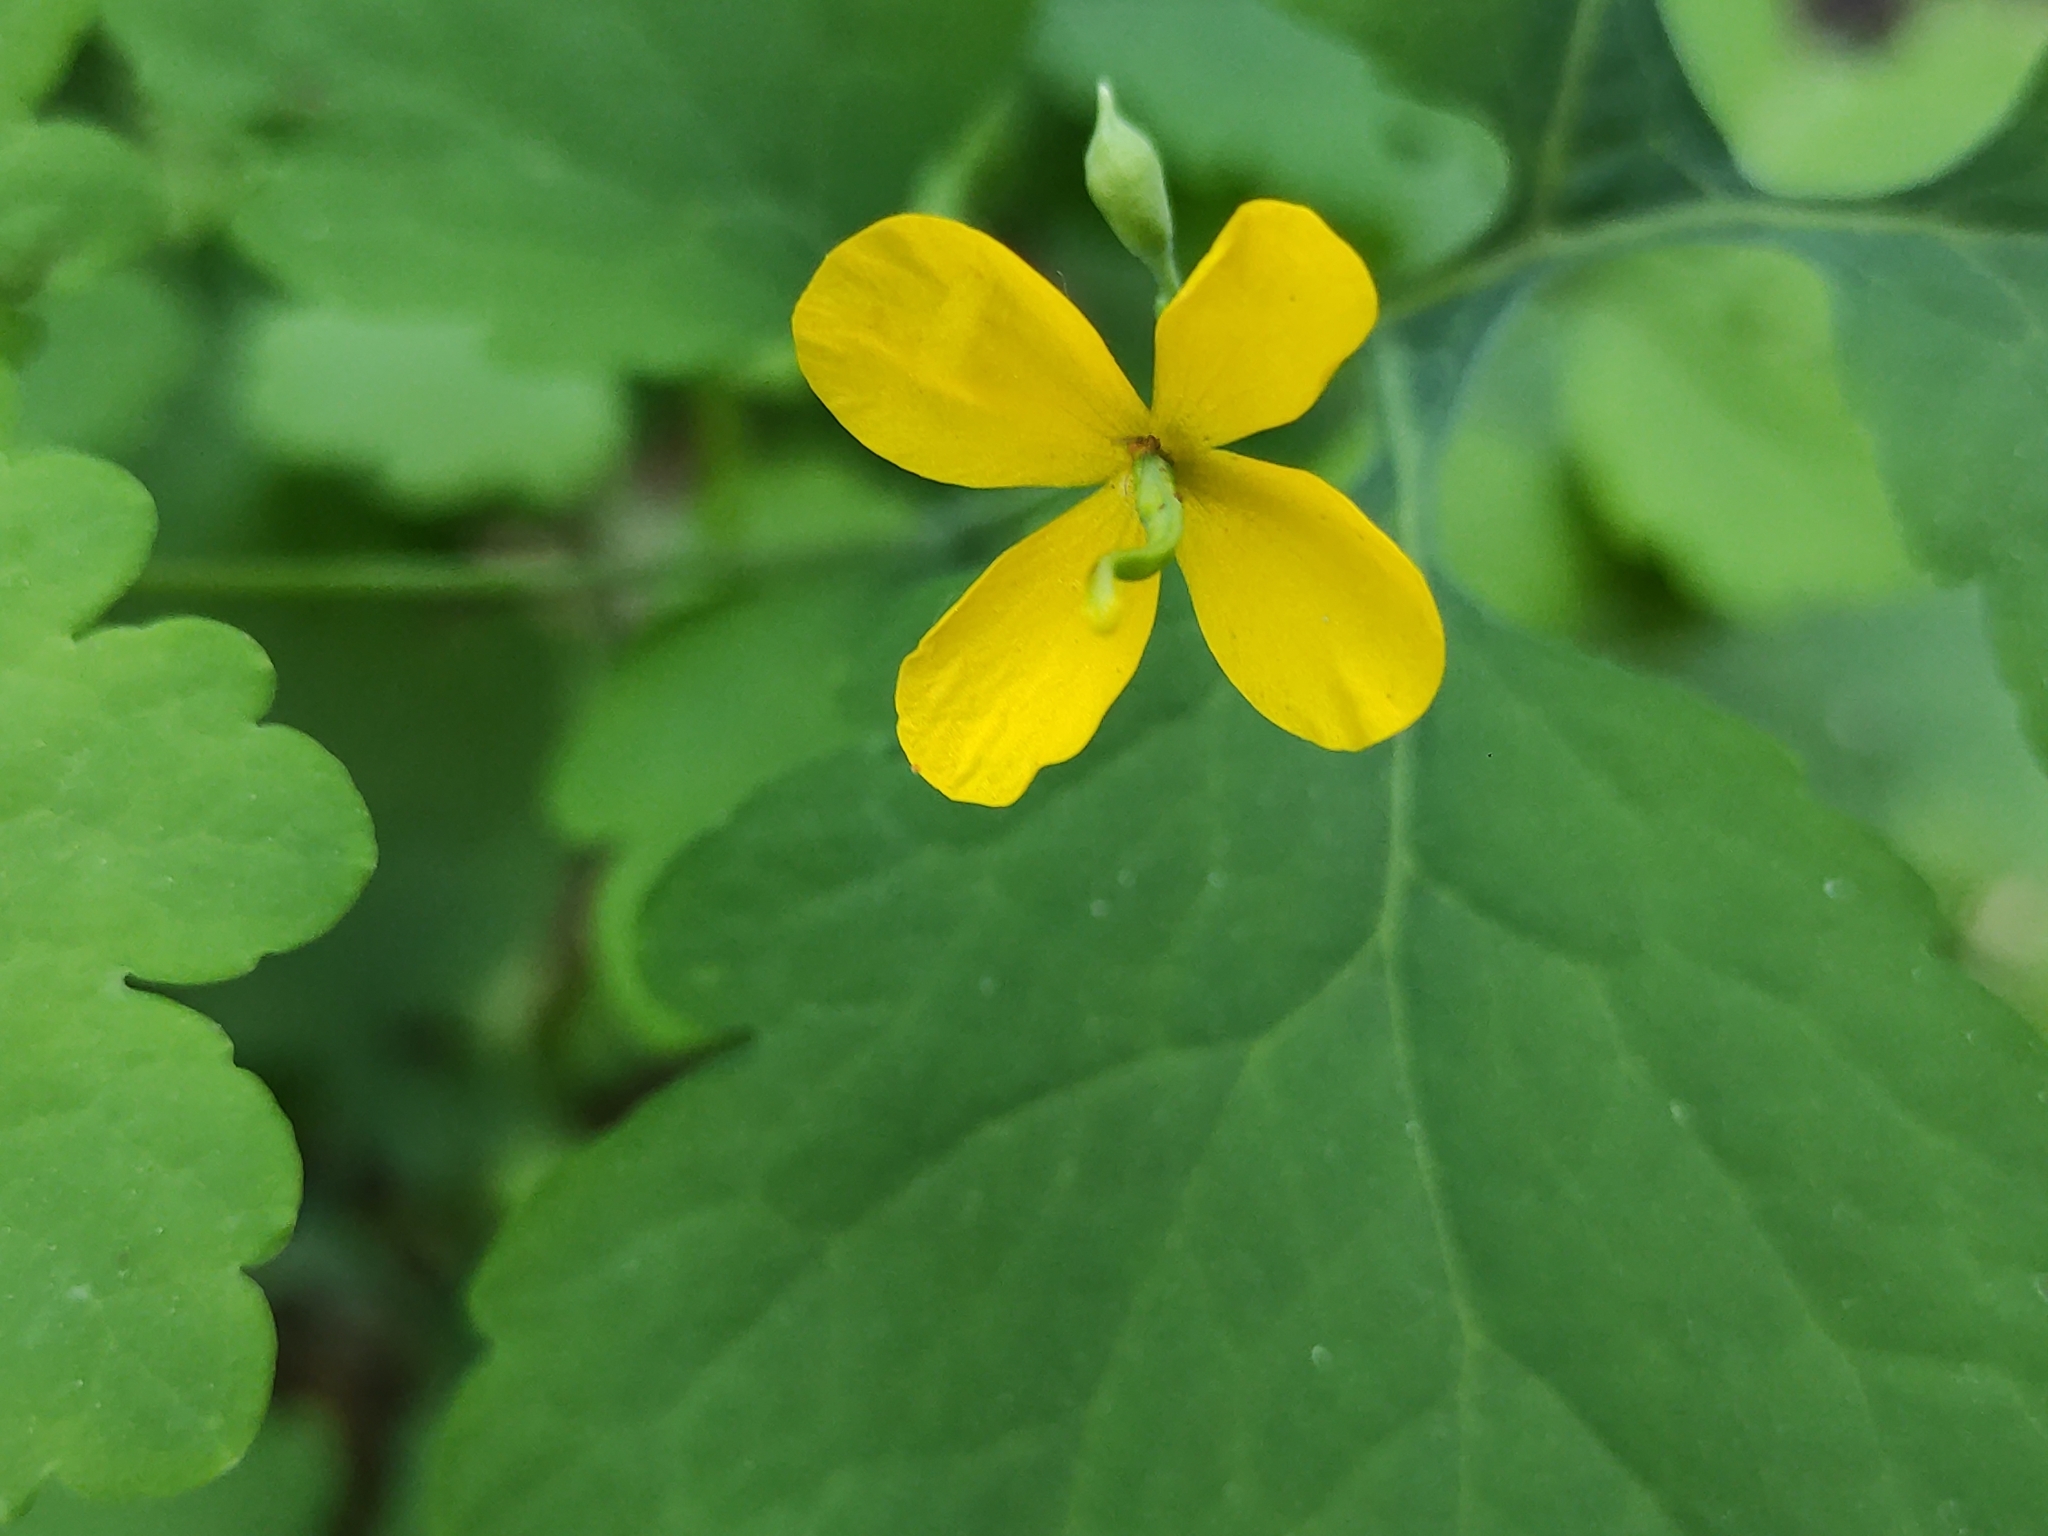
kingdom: Plantae
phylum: Tracheophyta
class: Magnoliopsida
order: Ranunculales
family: Papaveraceae
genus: Chelidonium
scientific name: Chelidonium majus
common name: Greater celandine
